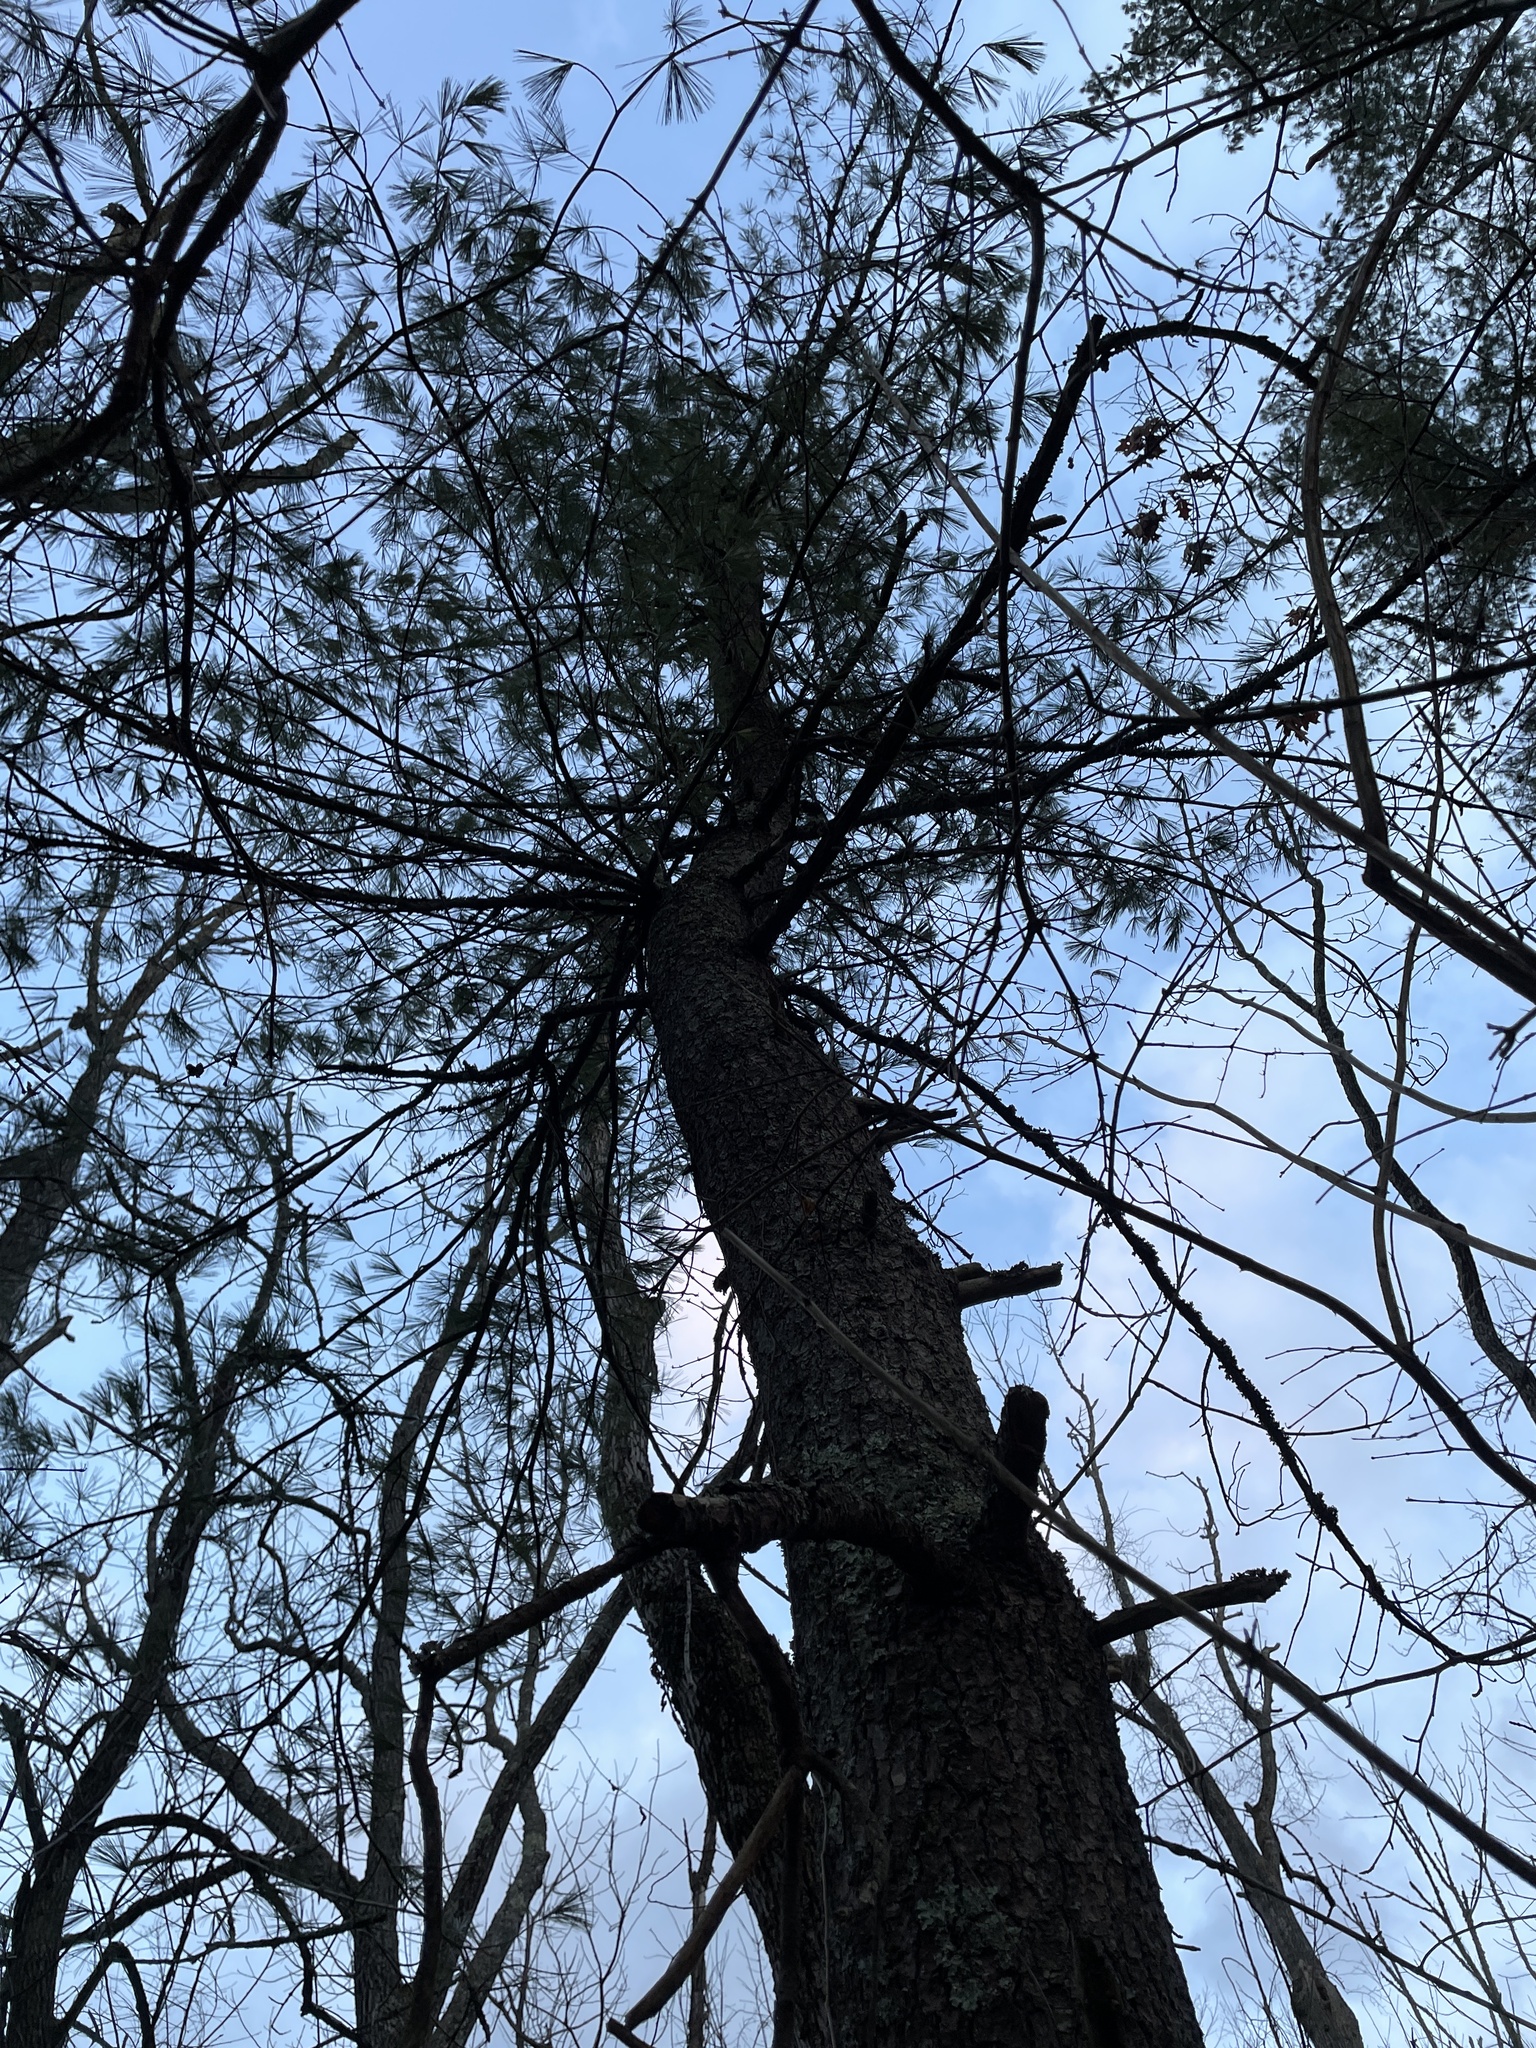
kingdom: Plantae
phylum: Tracheophyta
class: Pinopsida
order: Pinales
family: Pinaceae
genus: Pinus
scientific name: Pinus strobus
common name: Weymouth pine
